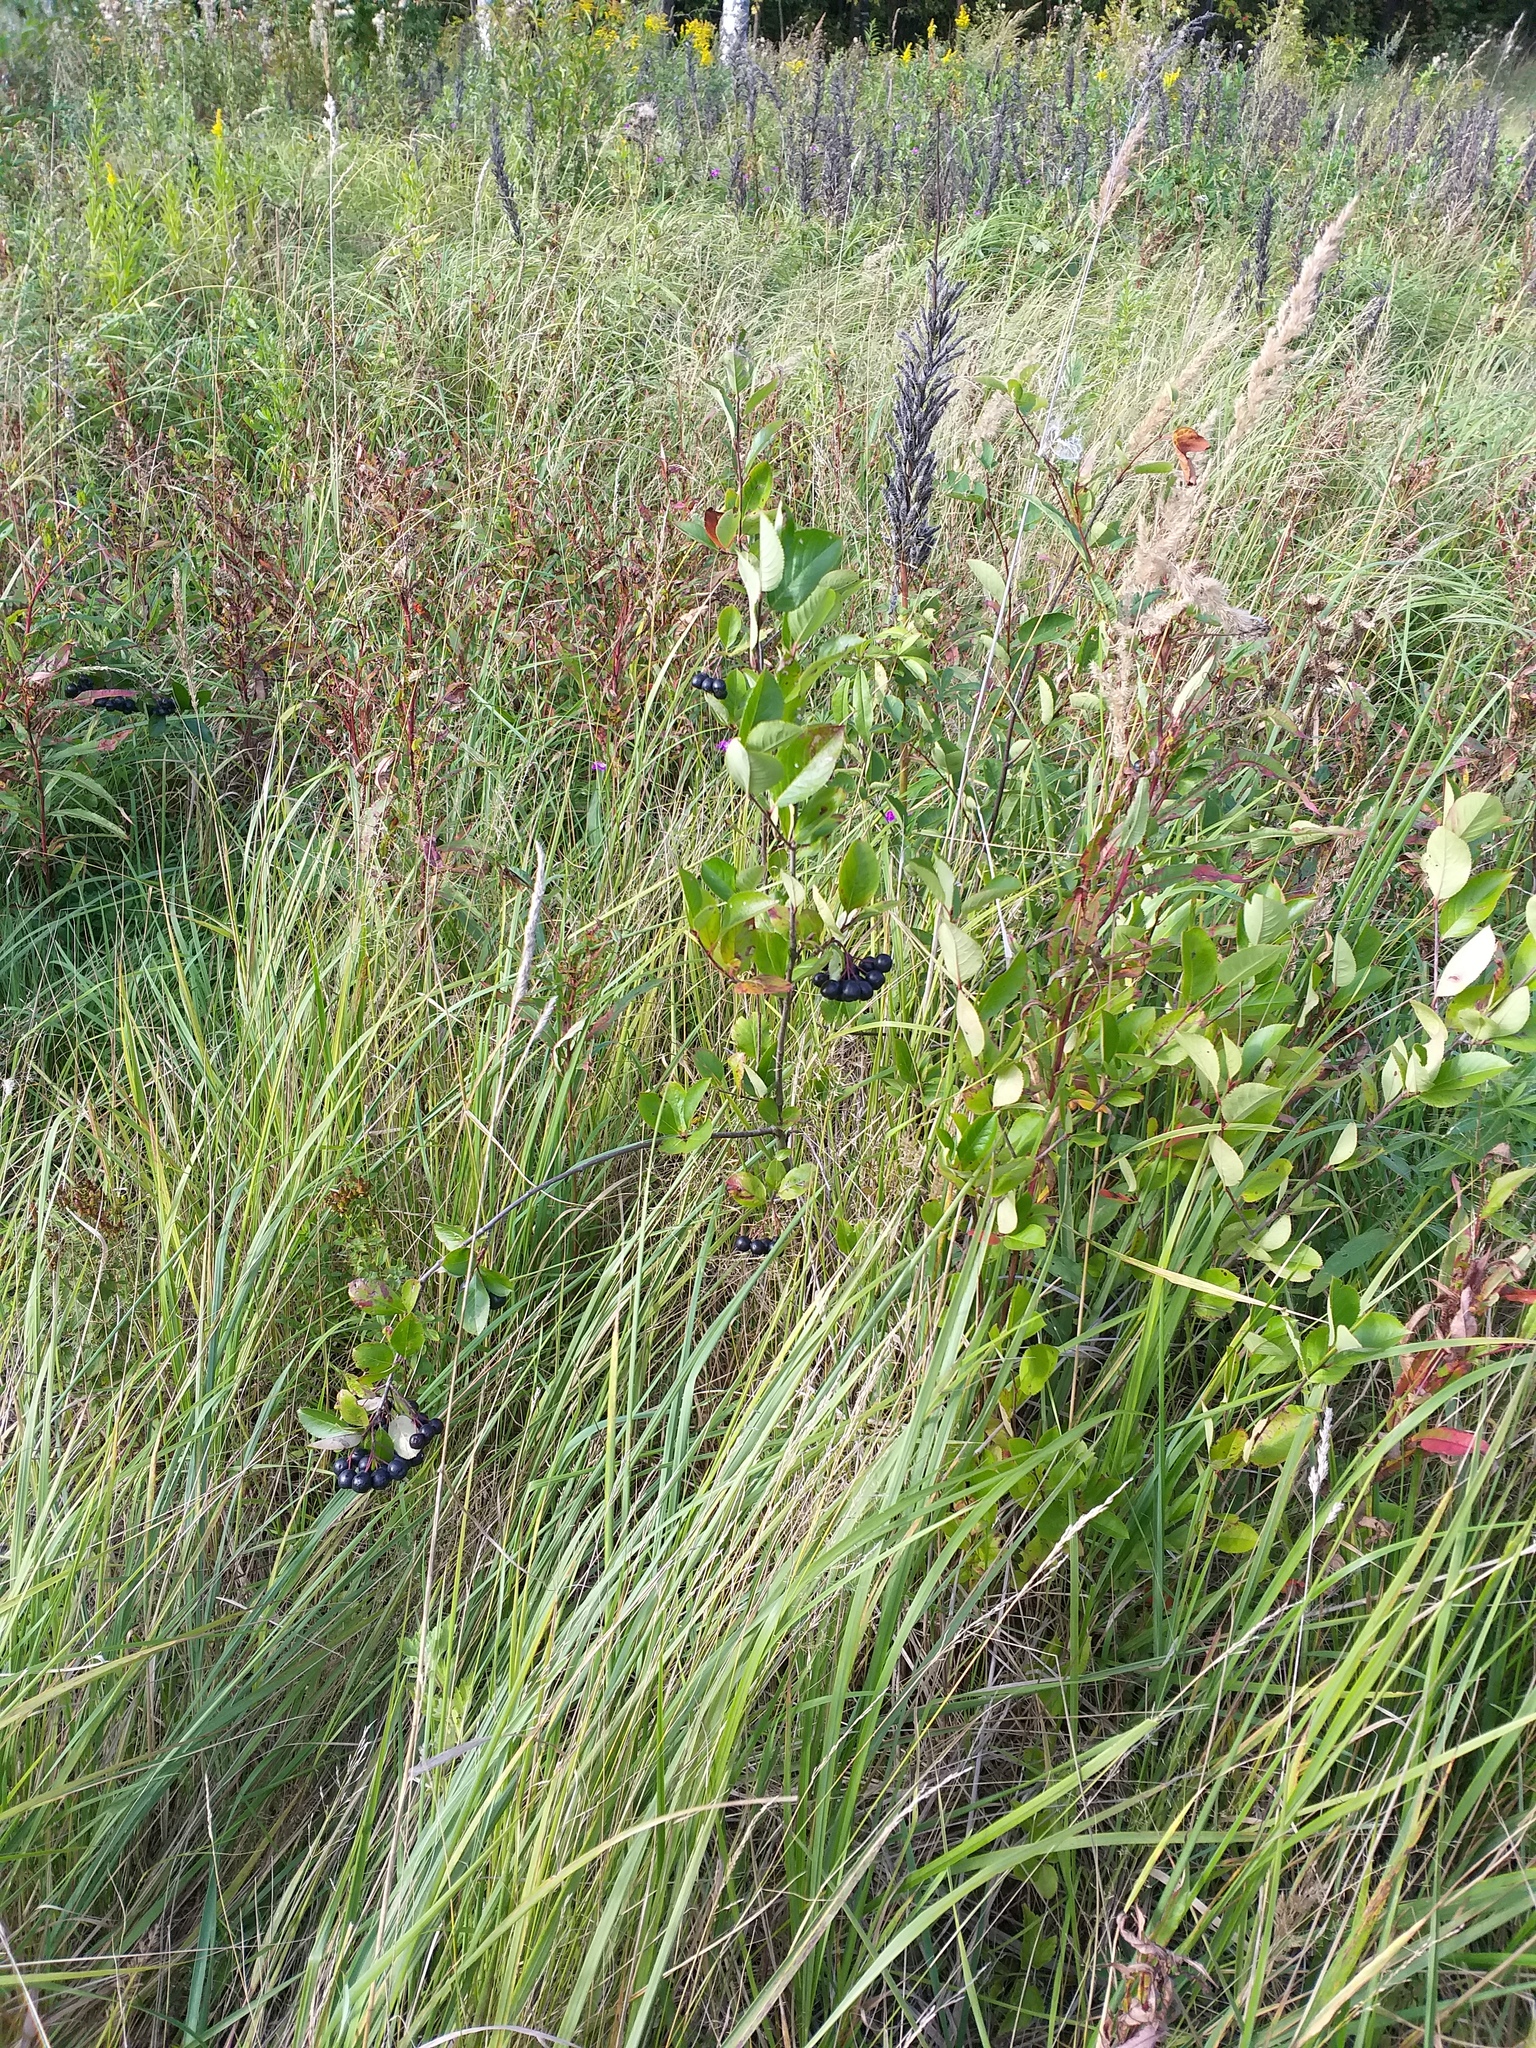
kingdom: Plantae
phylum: Tracheophyta
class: Magnoliopsida
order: Rosales
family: Rosaceae
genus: Sorbaronia
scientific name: Sorbaronia arsenii
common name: Arsène's mountain-ash
